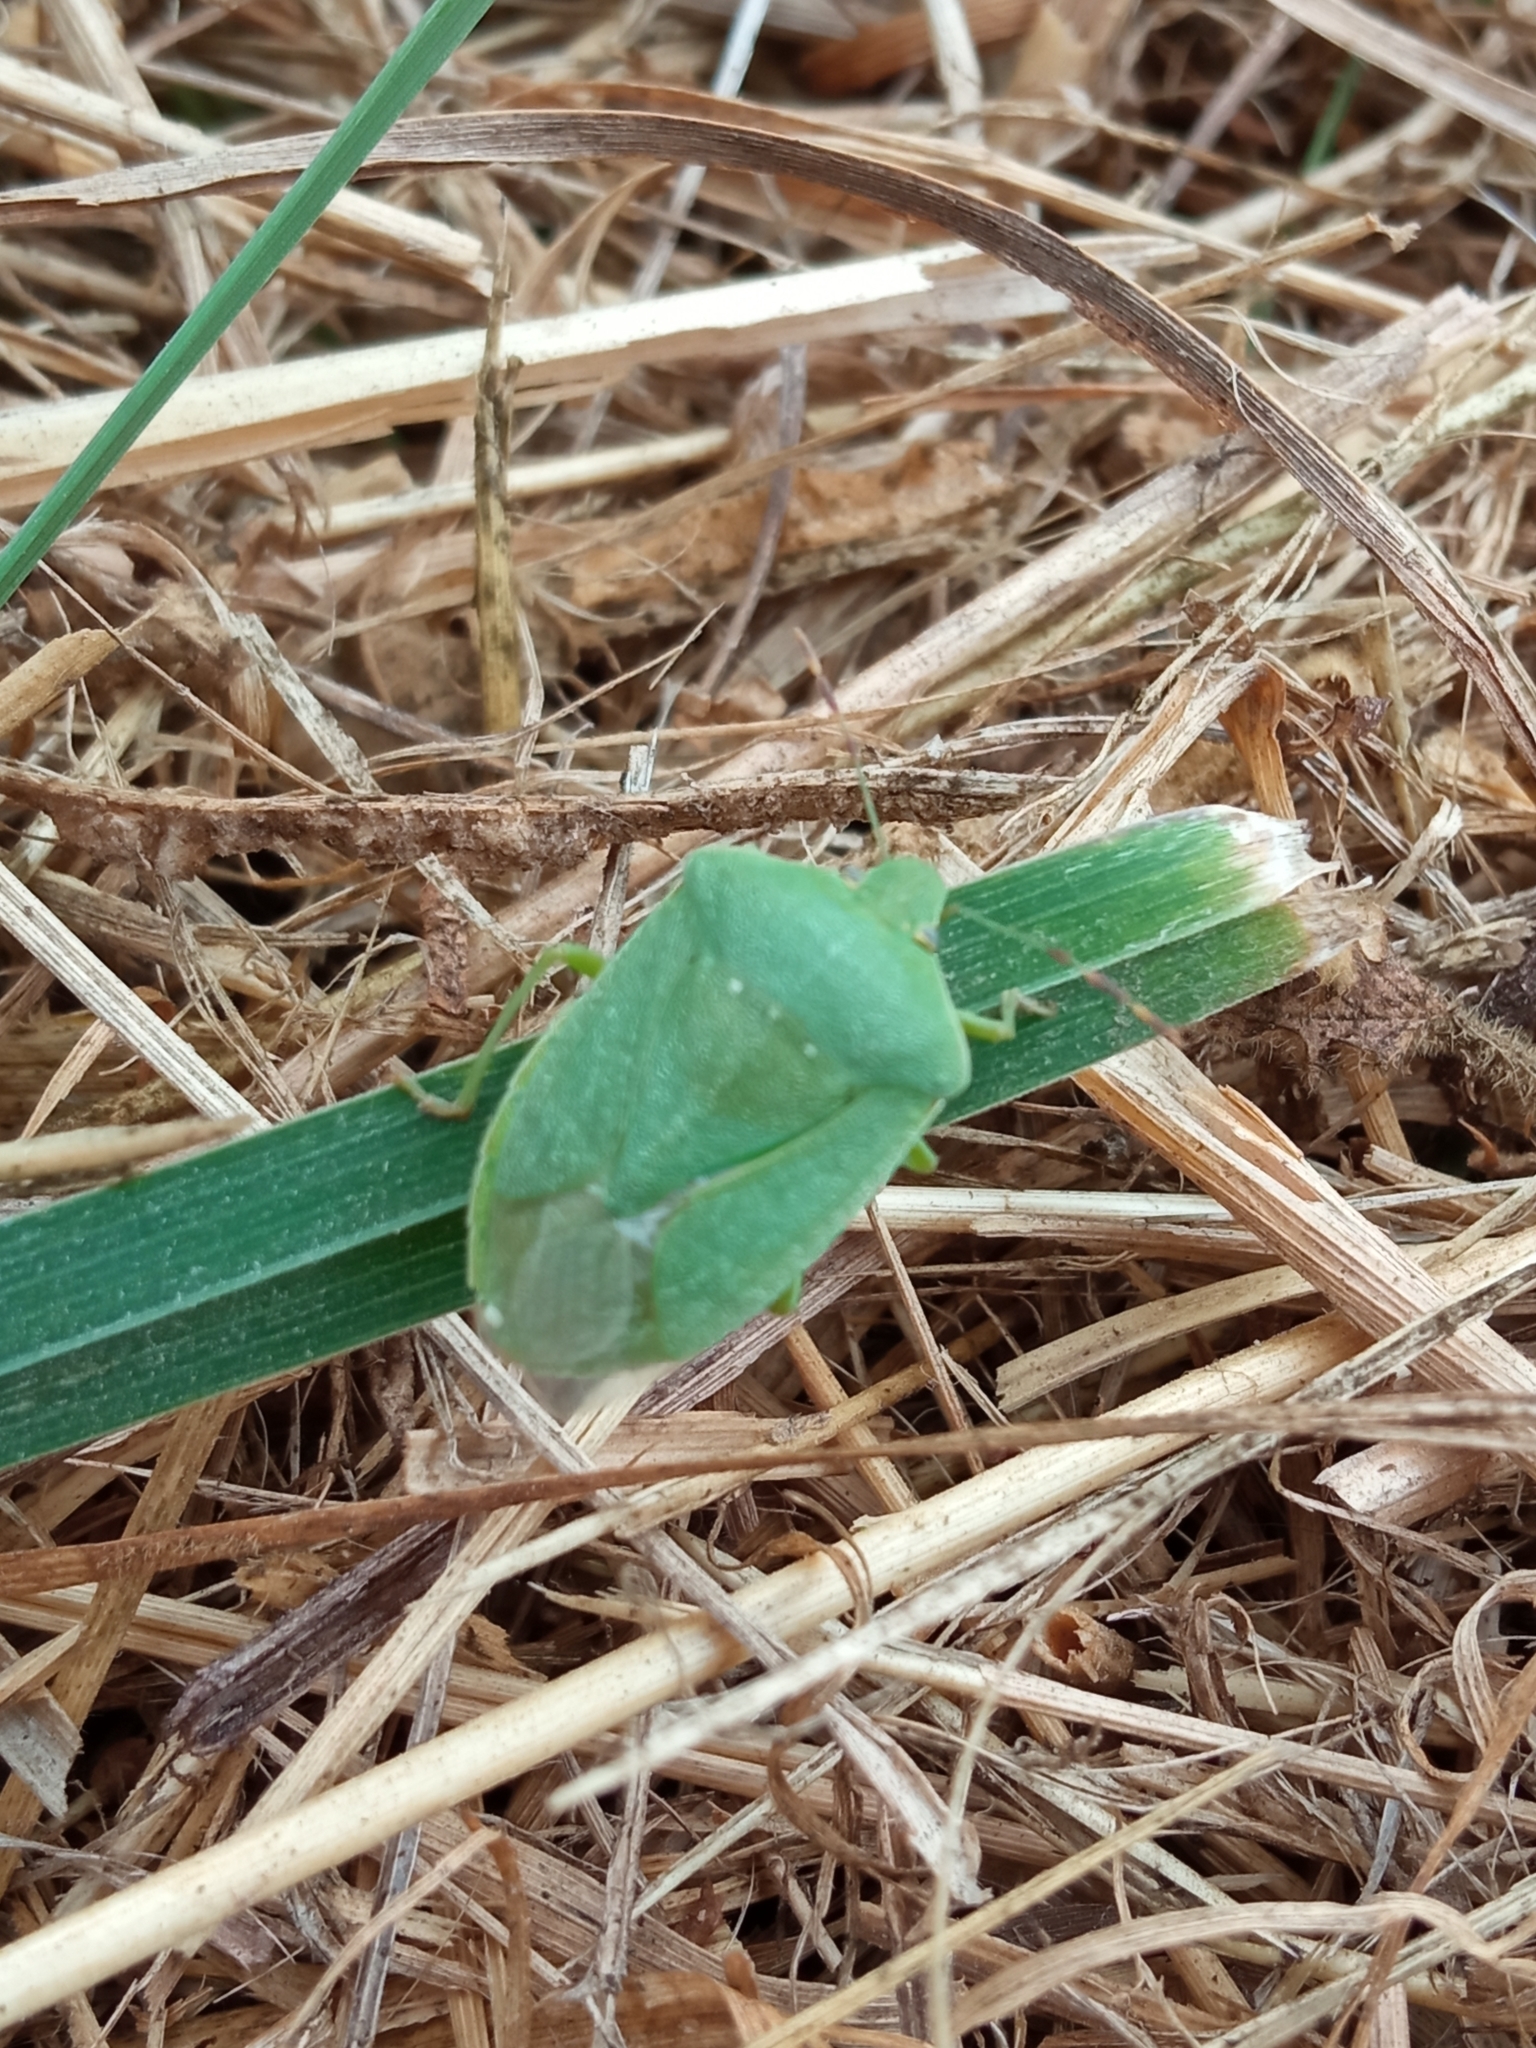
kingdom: Animalia
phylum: Arthropoda
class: Insecta
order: Hemiptera
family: Pentatomidae
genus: Nezara
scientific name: Nezara viridula
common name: Southern green stink bug
